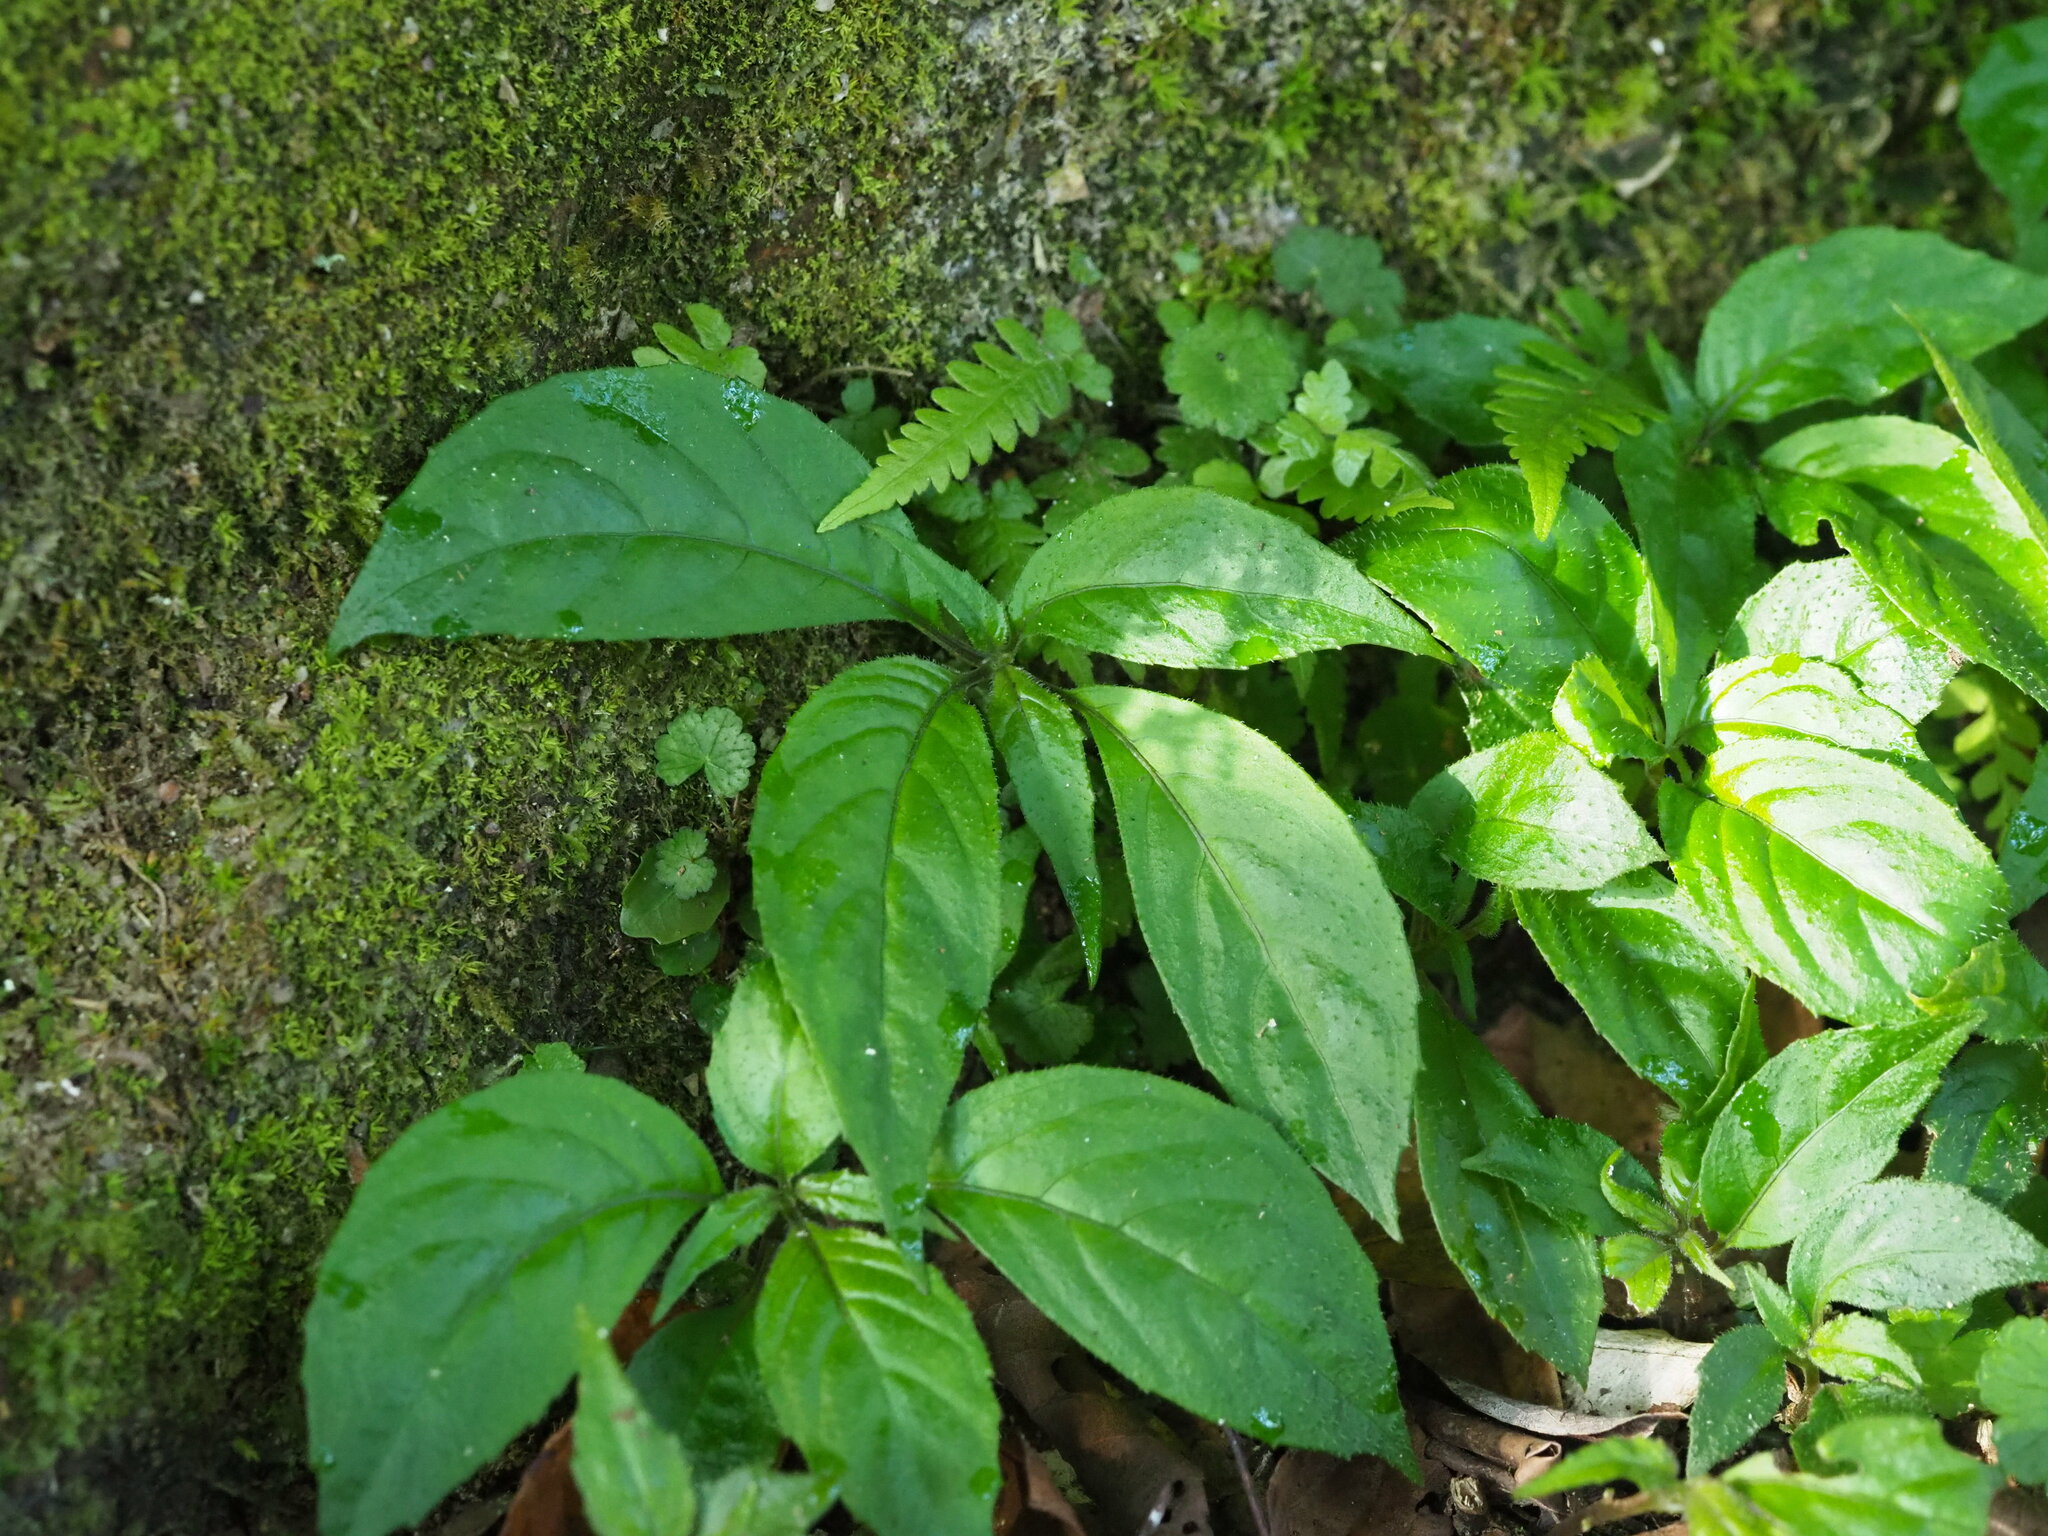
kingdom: Plantae
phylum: Tracheophyta
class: Magnoliopsida
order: Lamiales
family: Gesneriaceae
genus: Hemiboea
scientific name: Hemiboea bicornuta
